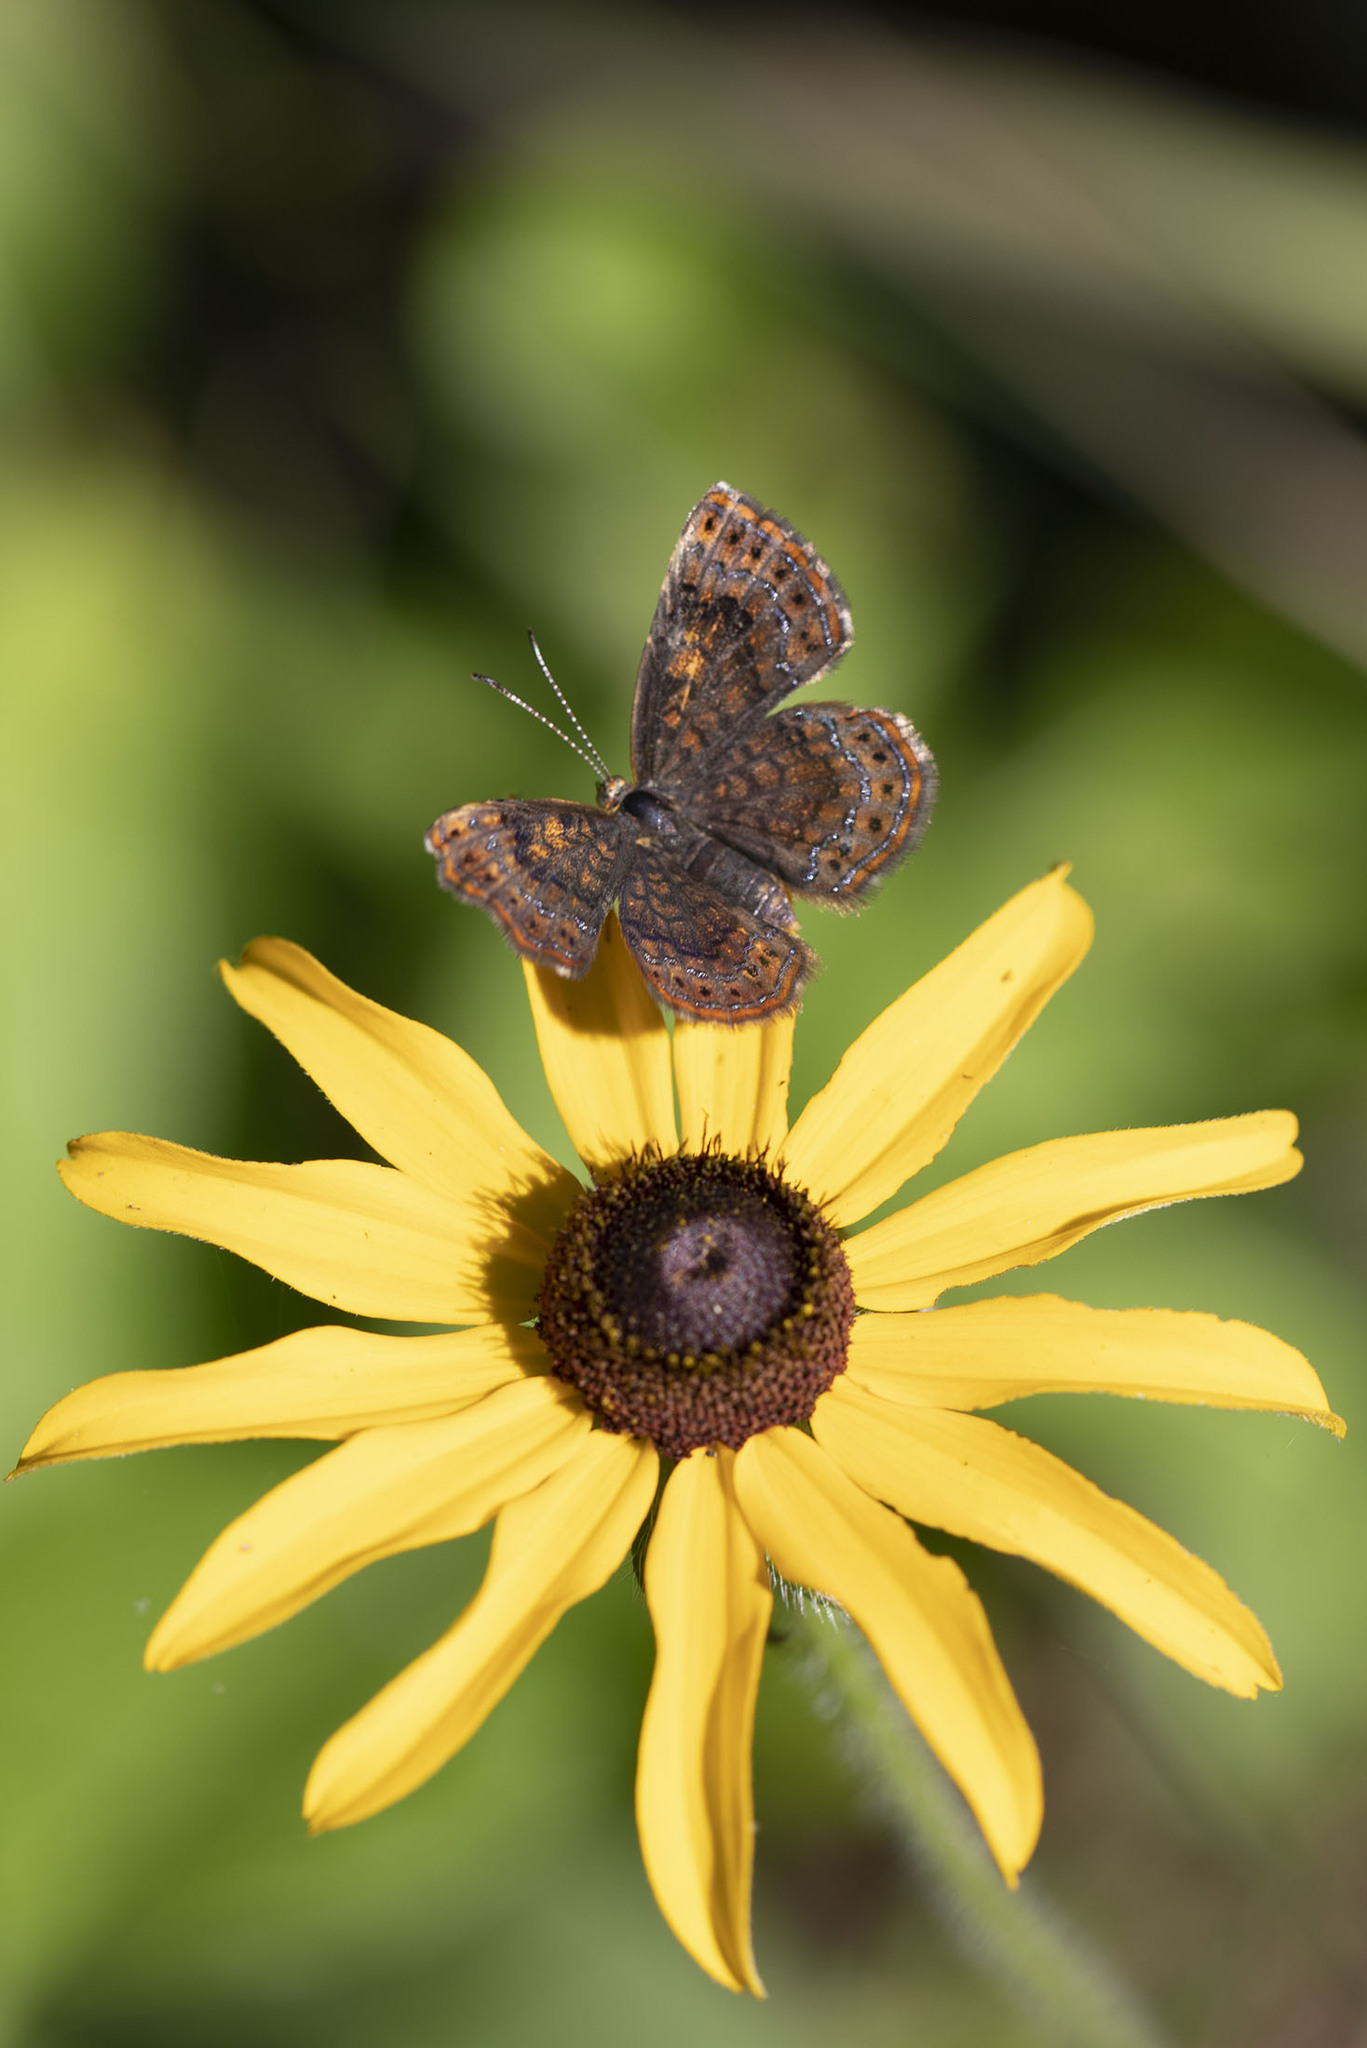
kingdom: Animalia
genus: Calephelis
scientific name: Calephelis borealis
